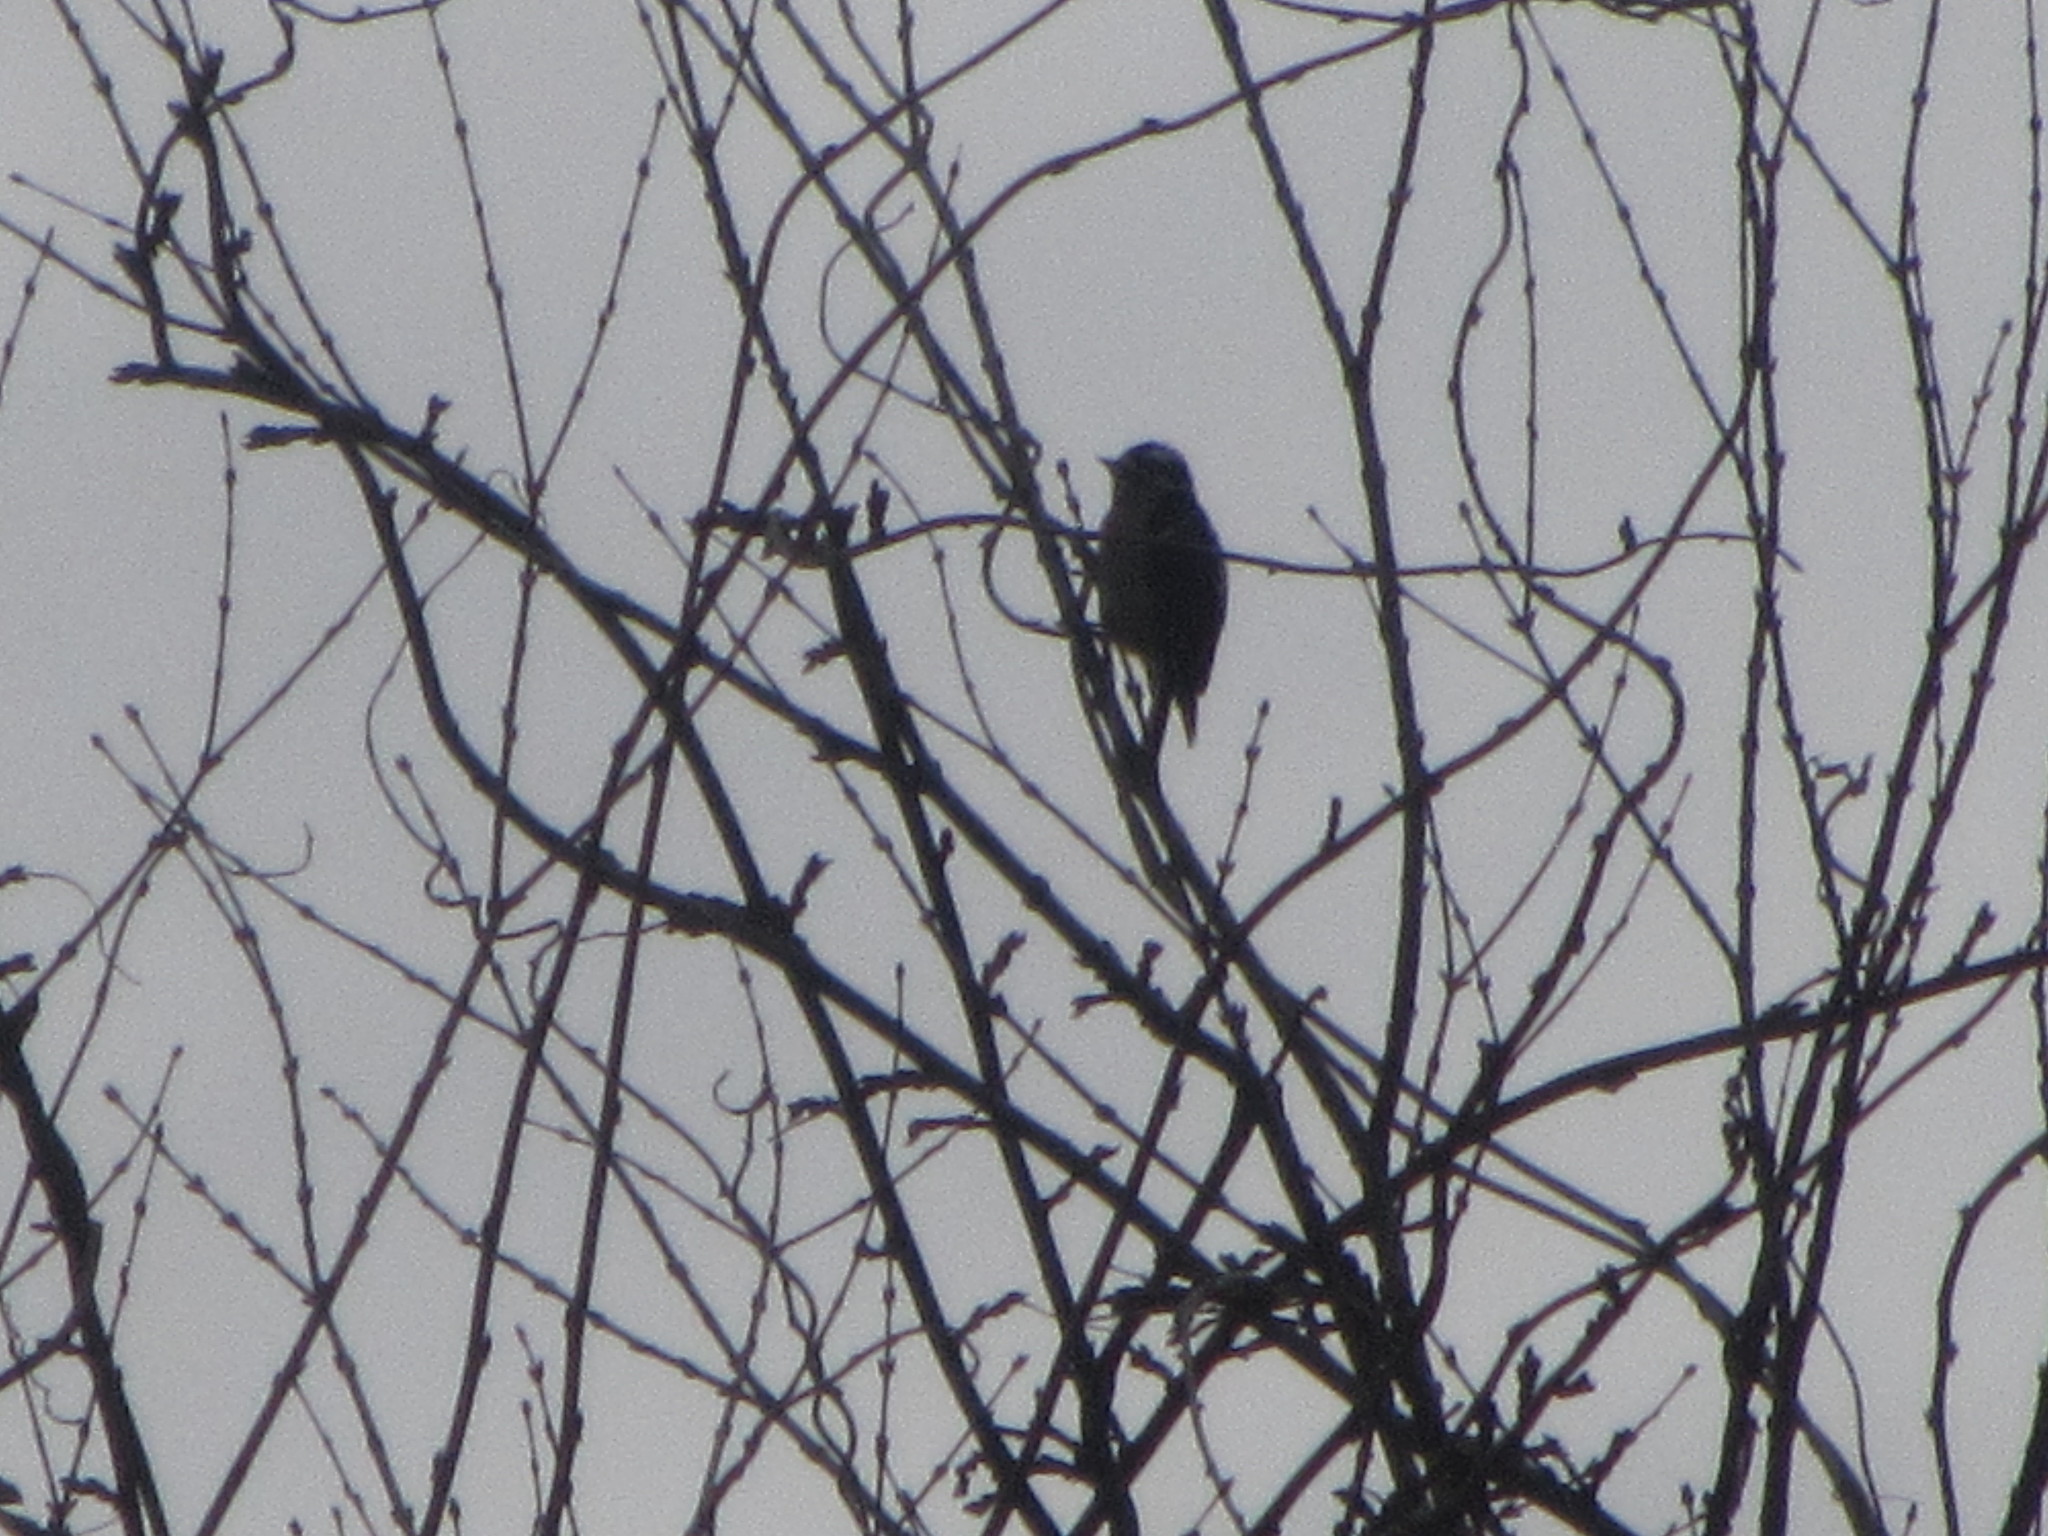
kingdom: Animalia
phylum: Chordata
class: Aves
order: Piciformes
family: Picidae
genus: Dryobates
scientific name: Dryobates pubescens
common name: Downy woodpecker
